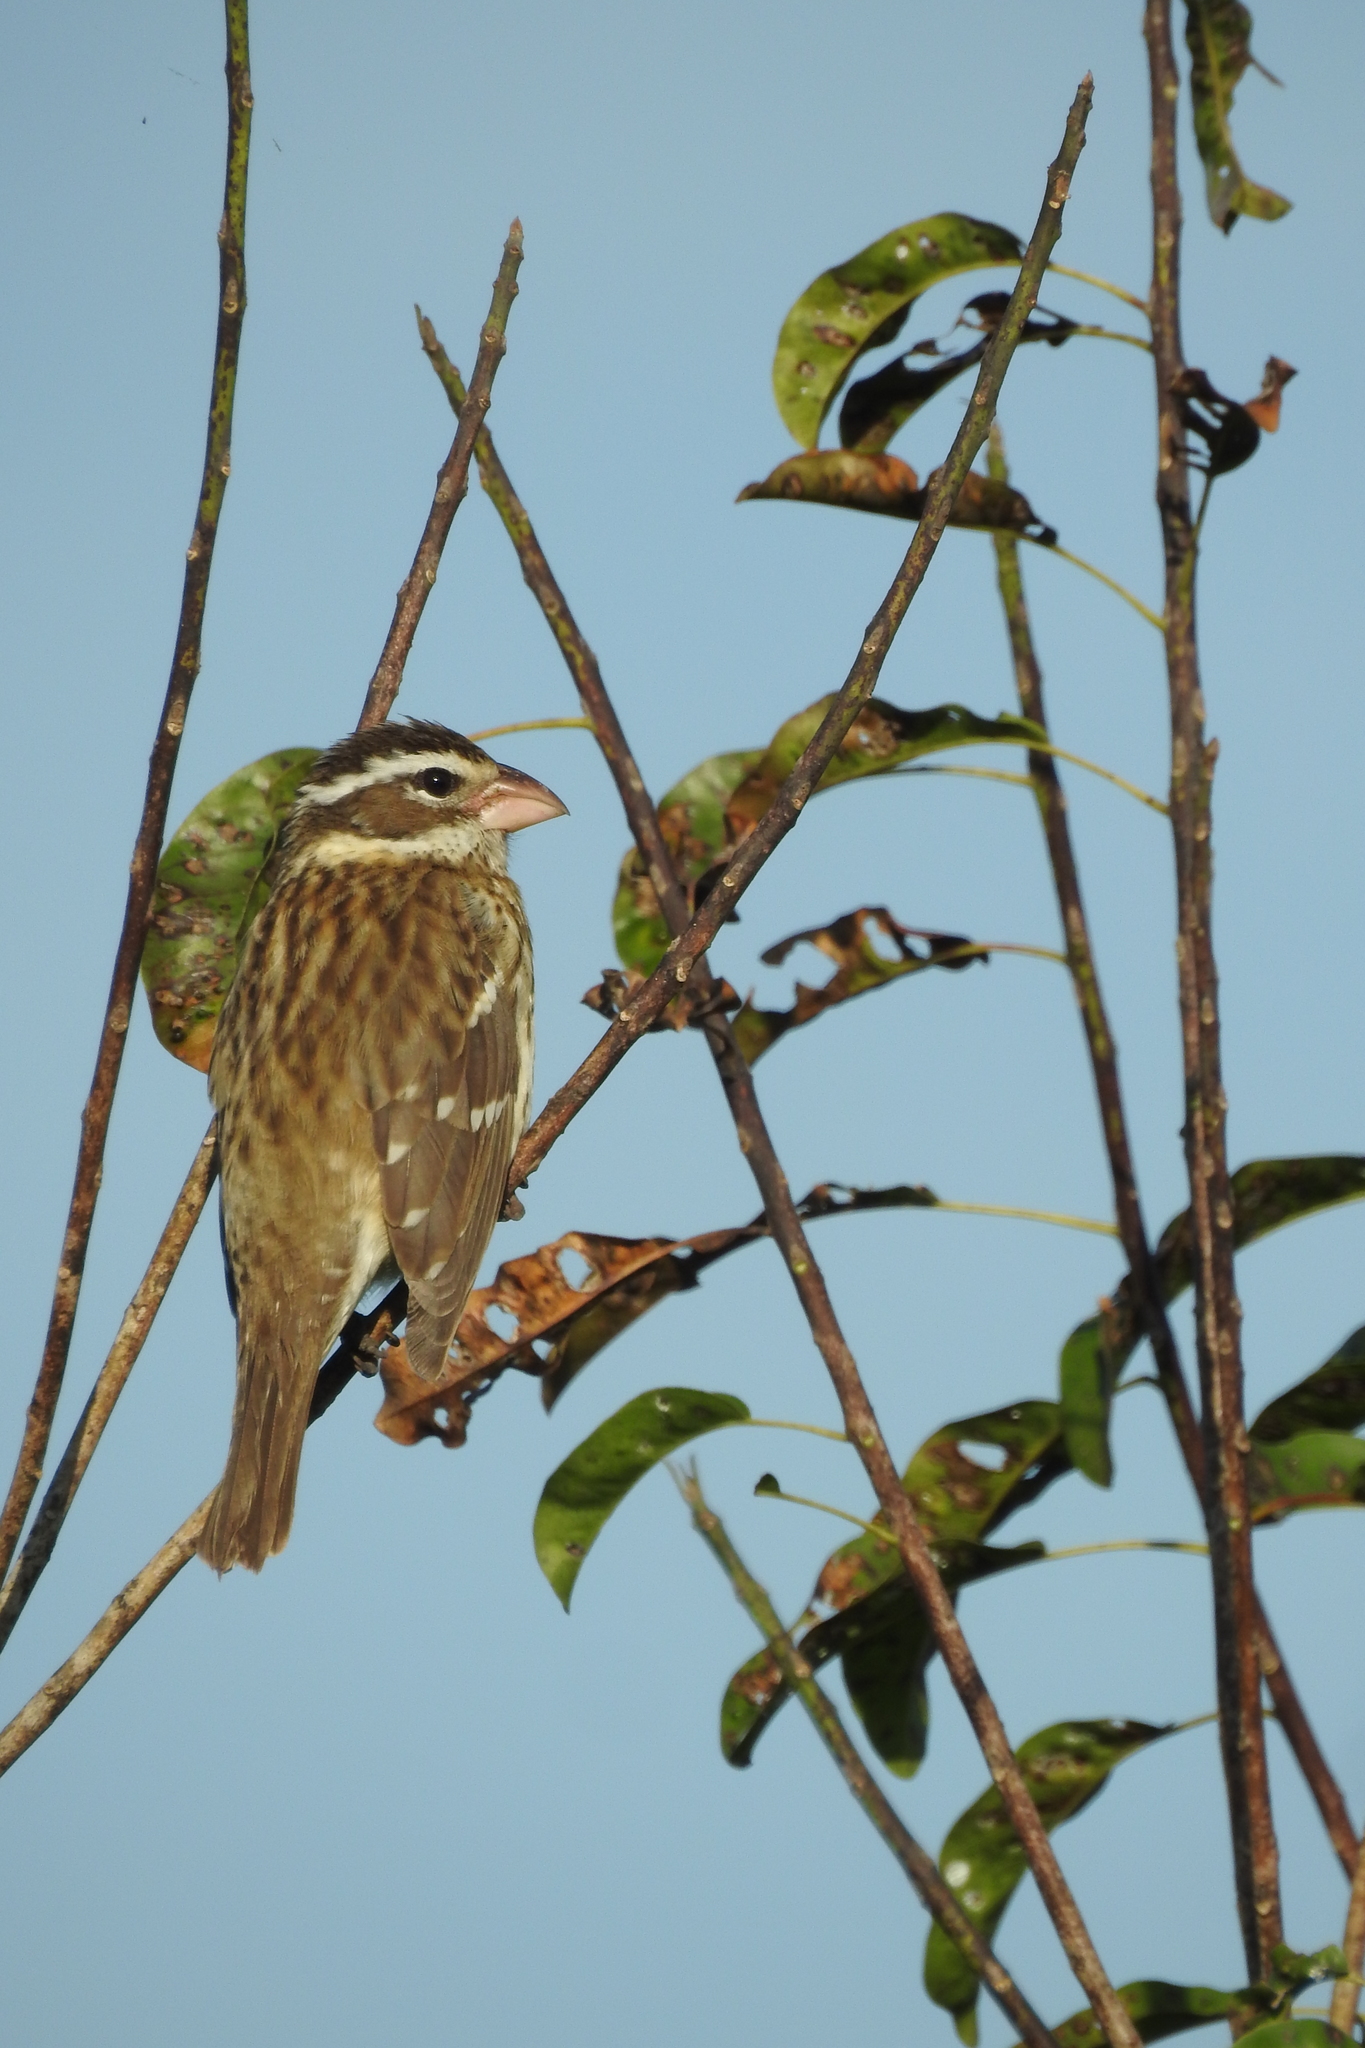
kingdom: Animalia
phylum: Chordata
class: Aves
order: Passeriformes
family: Cardinalidae
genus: Pheucticus
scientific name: Pheucticus ludovicianus
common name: Rose-breasted grosbeak
